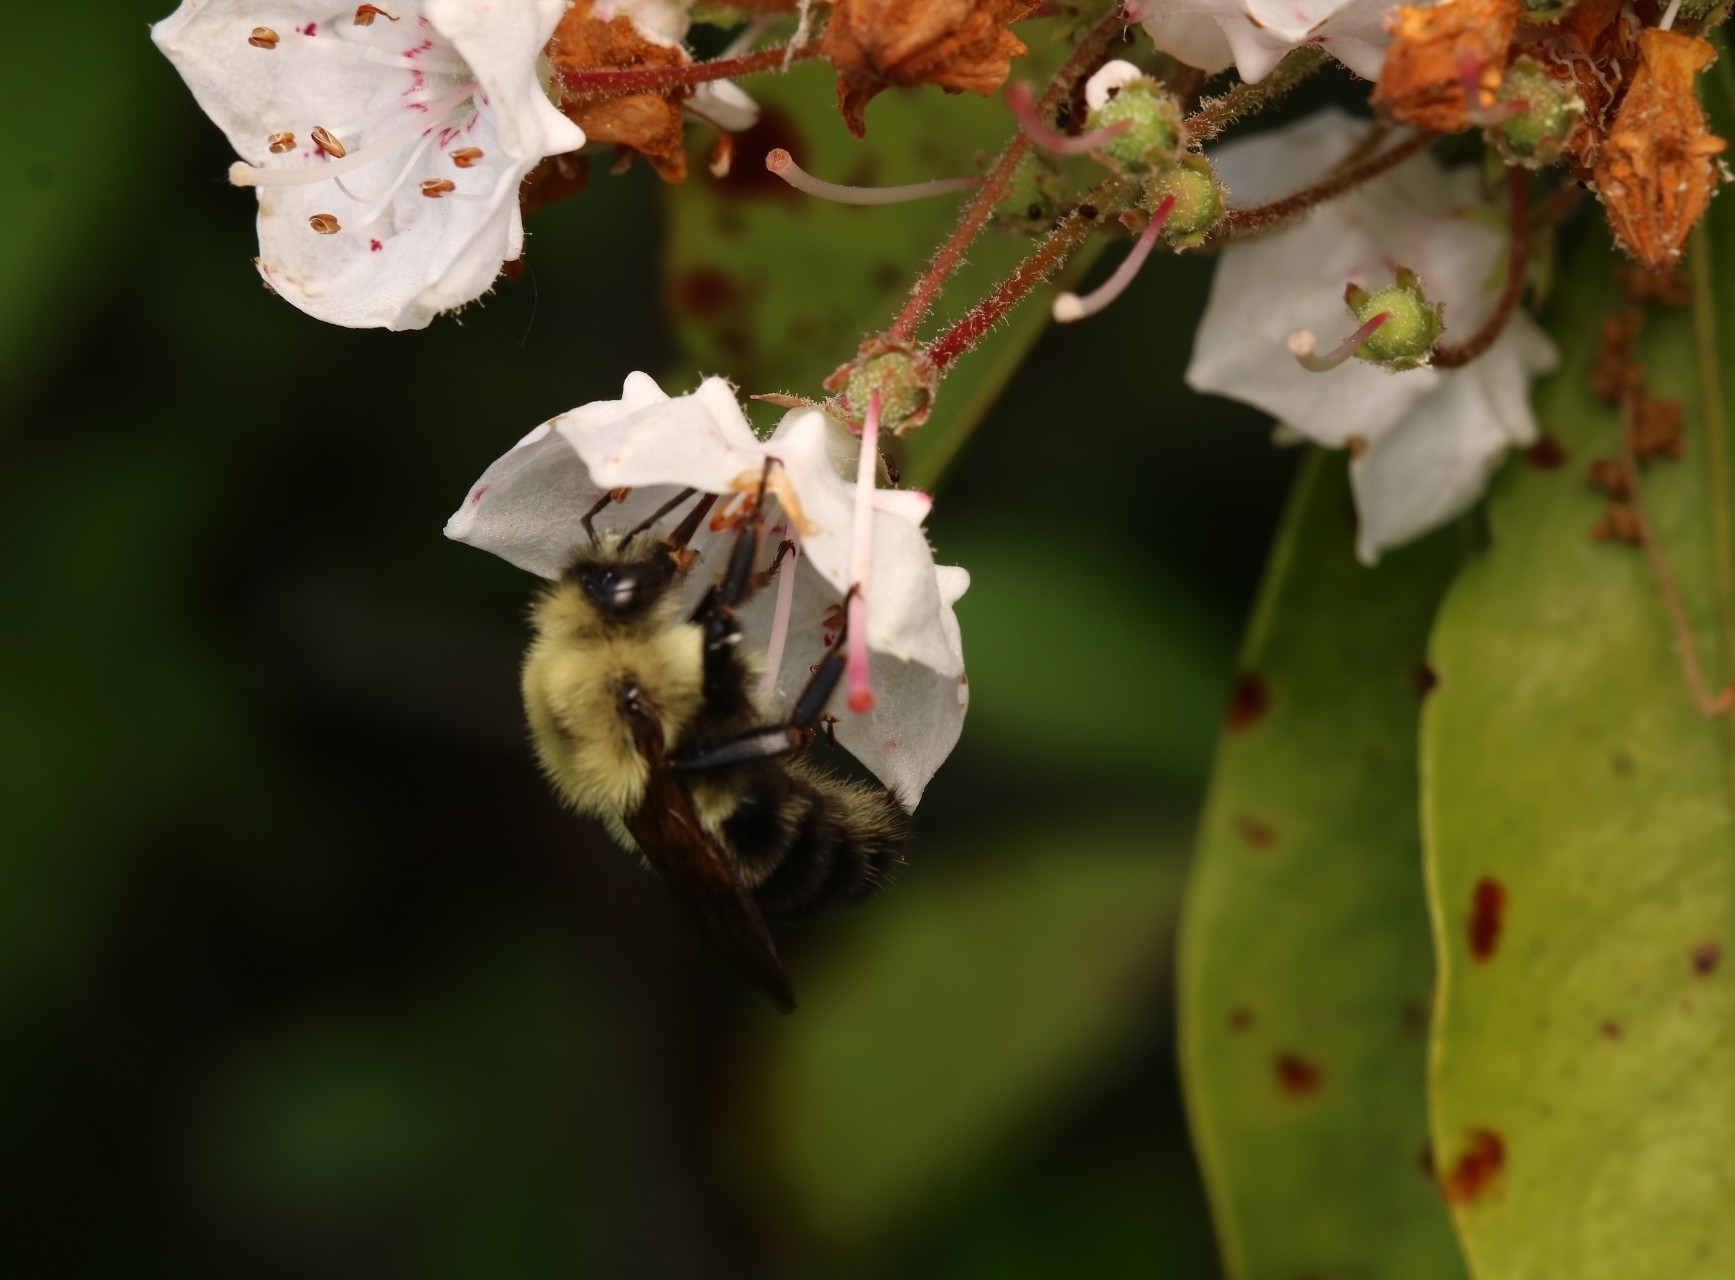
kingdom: Animalia
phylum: Arthropoda
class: Insecta
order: Hymenoptera
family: Apidae
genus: Bombus
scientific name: Bombus bimaculatus
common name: Two-spotted bumble bee
